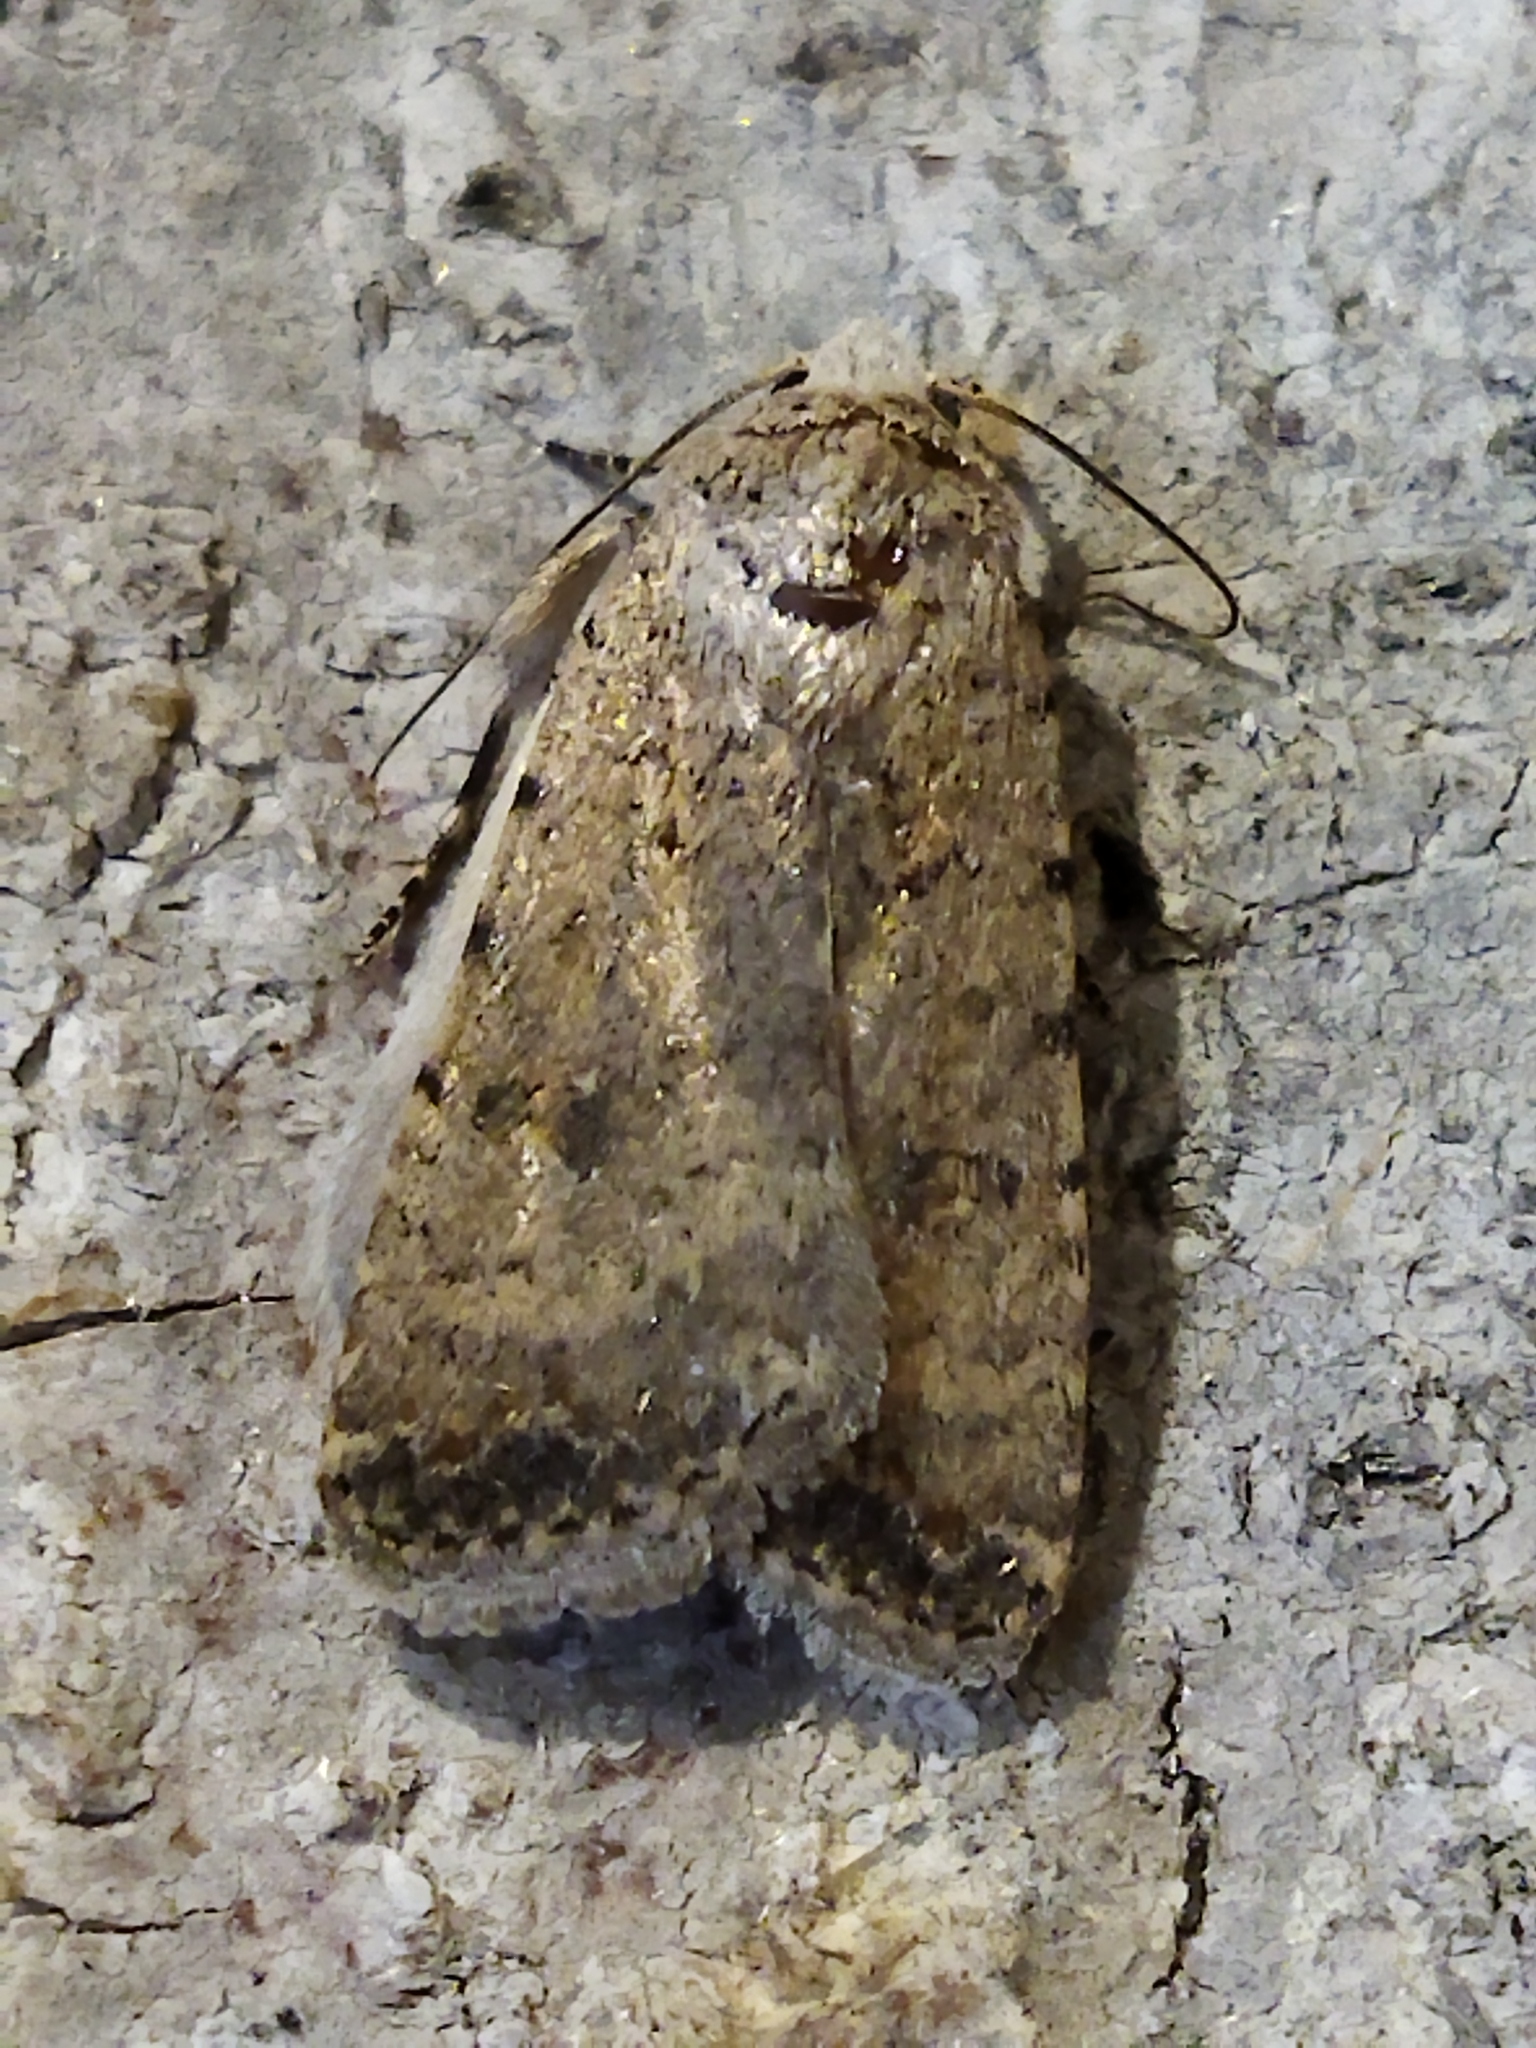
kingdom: Animalia
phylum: Arthropoda
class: Insecta
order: Lepidoptera
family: Noctuidae
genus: Caradrina
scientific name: Caradrina clavipalpis
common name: Pale mottled willow
